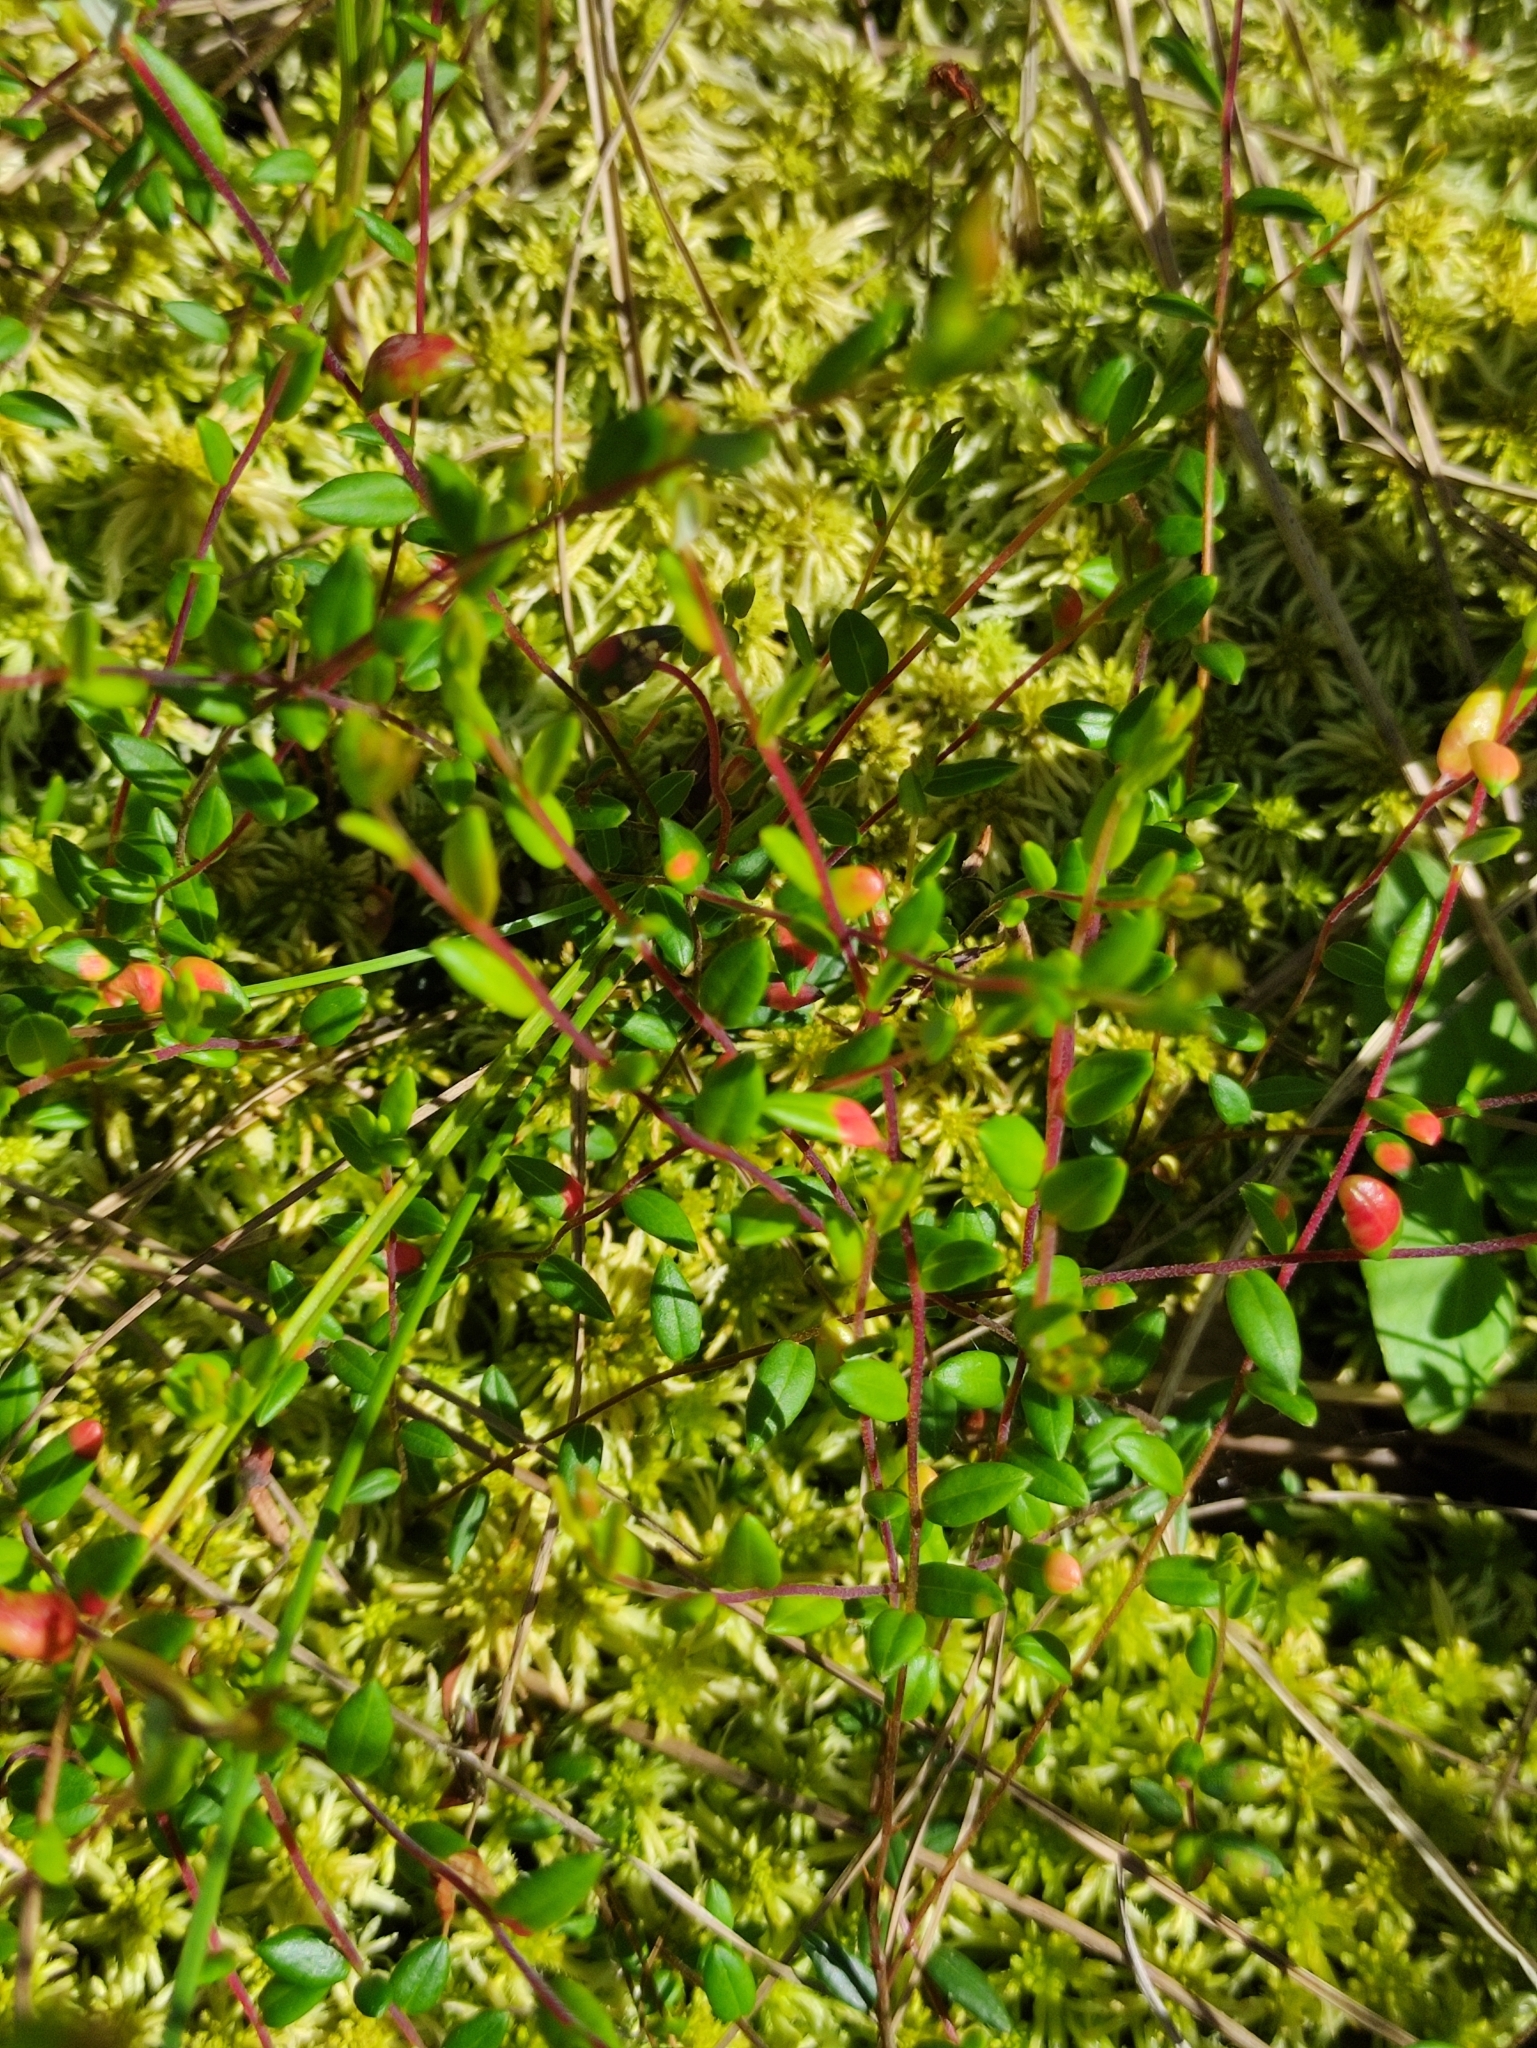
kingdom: Plantae
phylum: Tracheophyta
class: Magnoliopsida
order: Ericales
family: Ericaceae
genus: Vaccinium
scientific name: Vaccinium oxycoccos
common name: Cranberry
